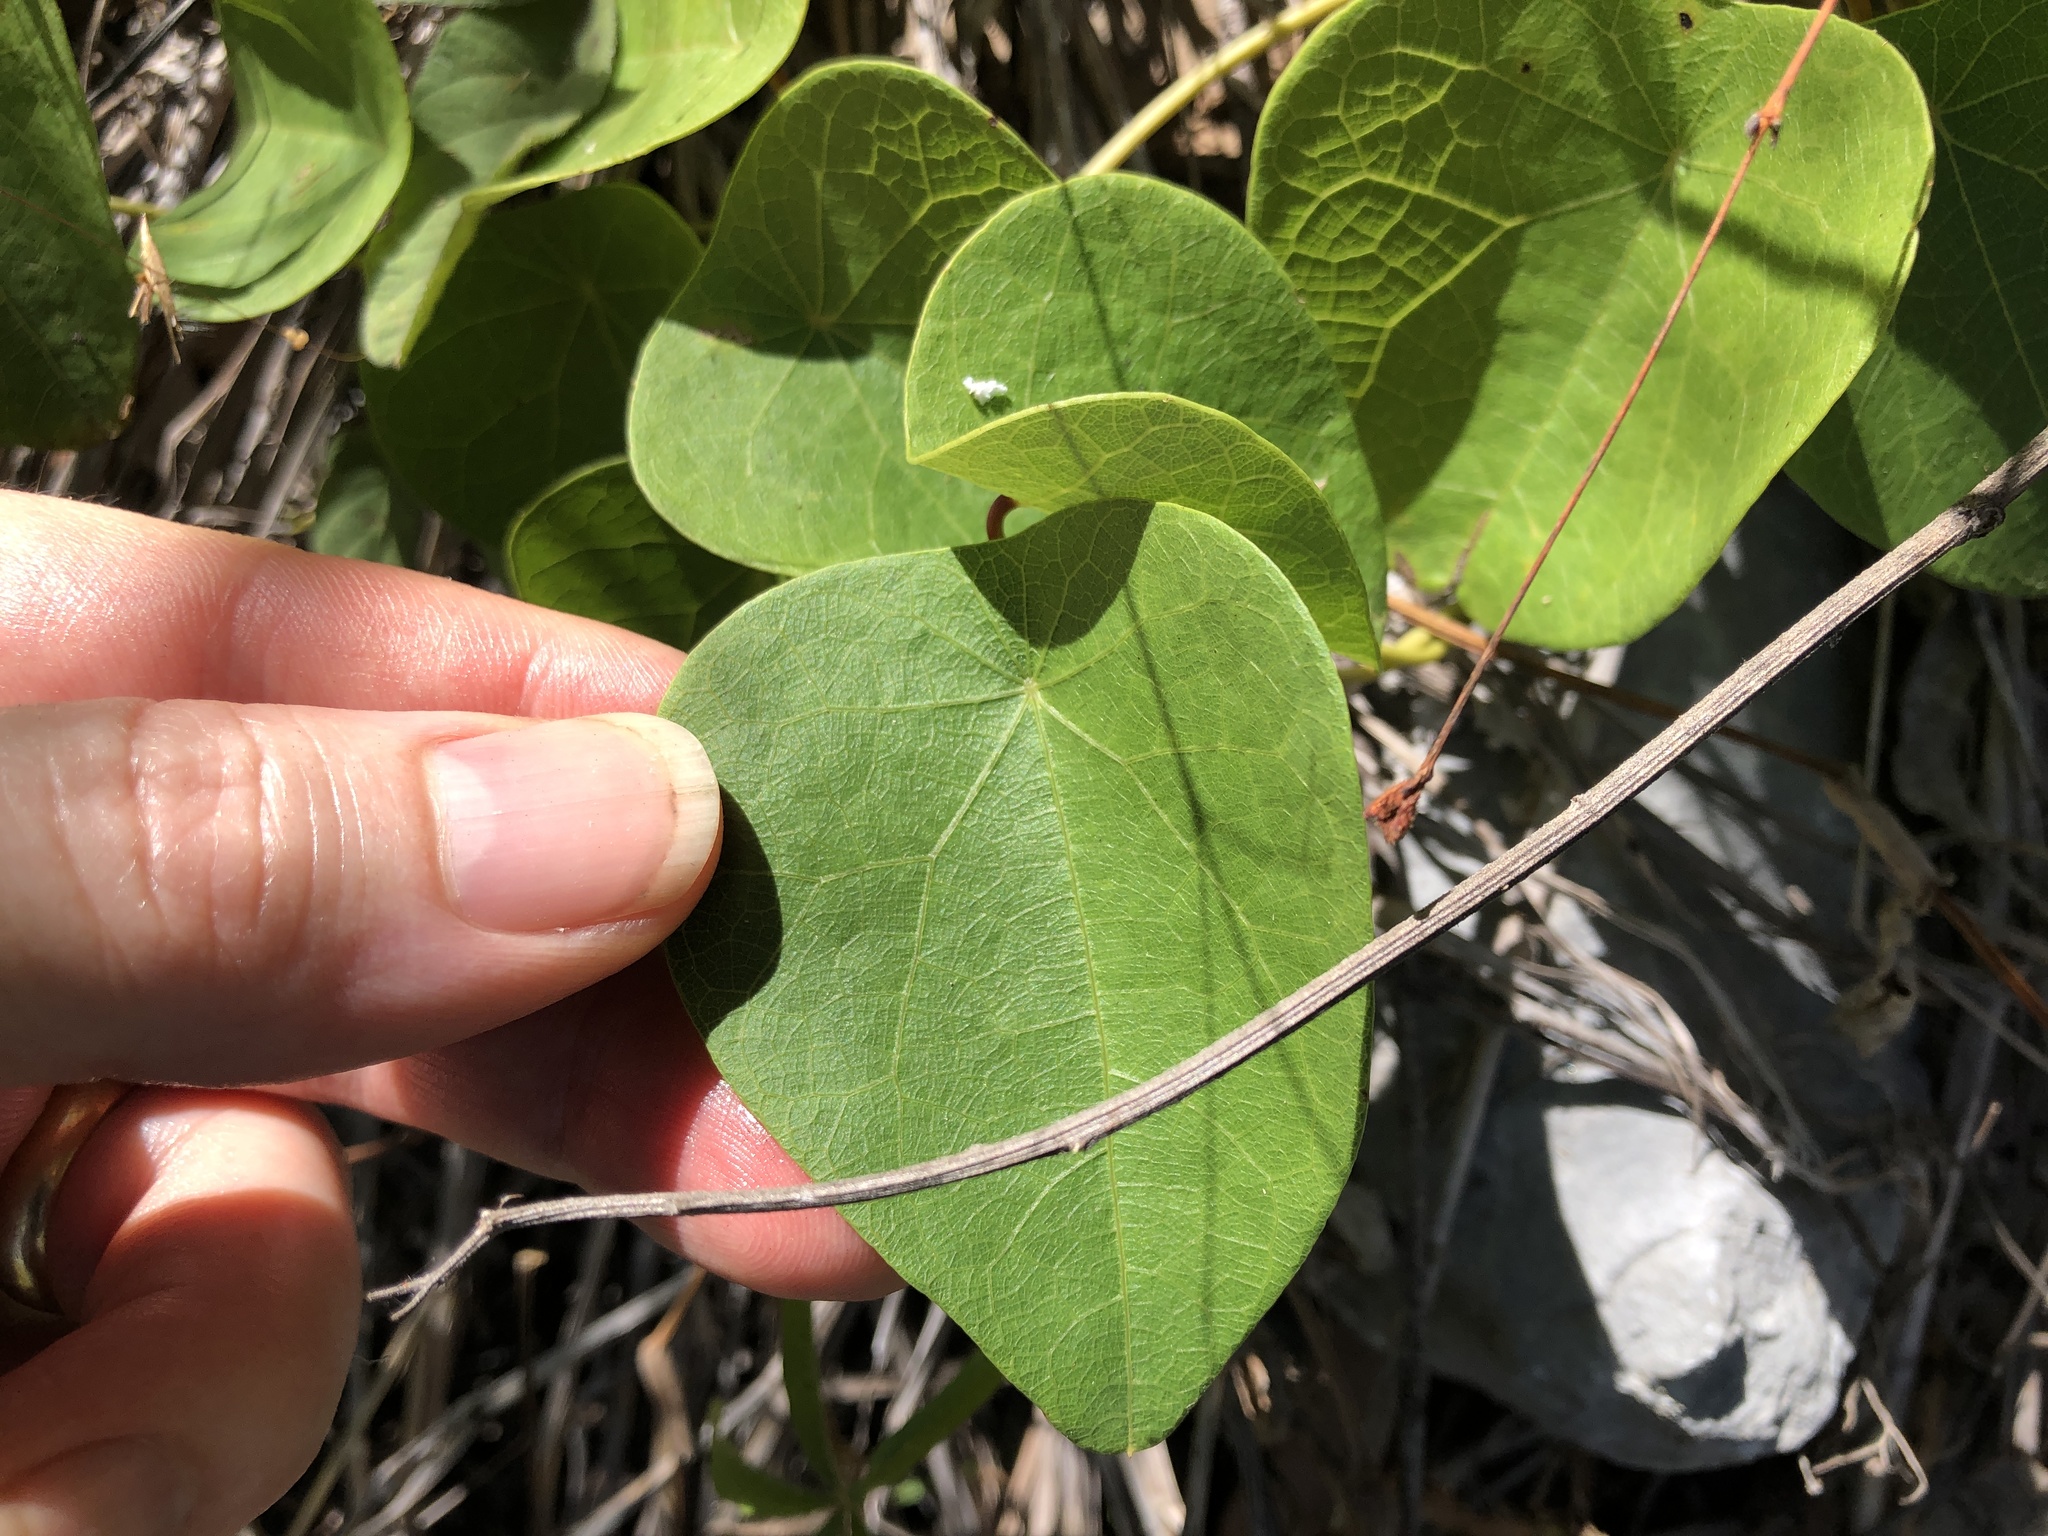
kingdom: Plantae
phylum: Tracheophyta
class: Magnoliopsida
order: Ranunculales
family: Menispermaceae
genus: Stephania
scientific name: Stephania japonica
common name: Snake vine
